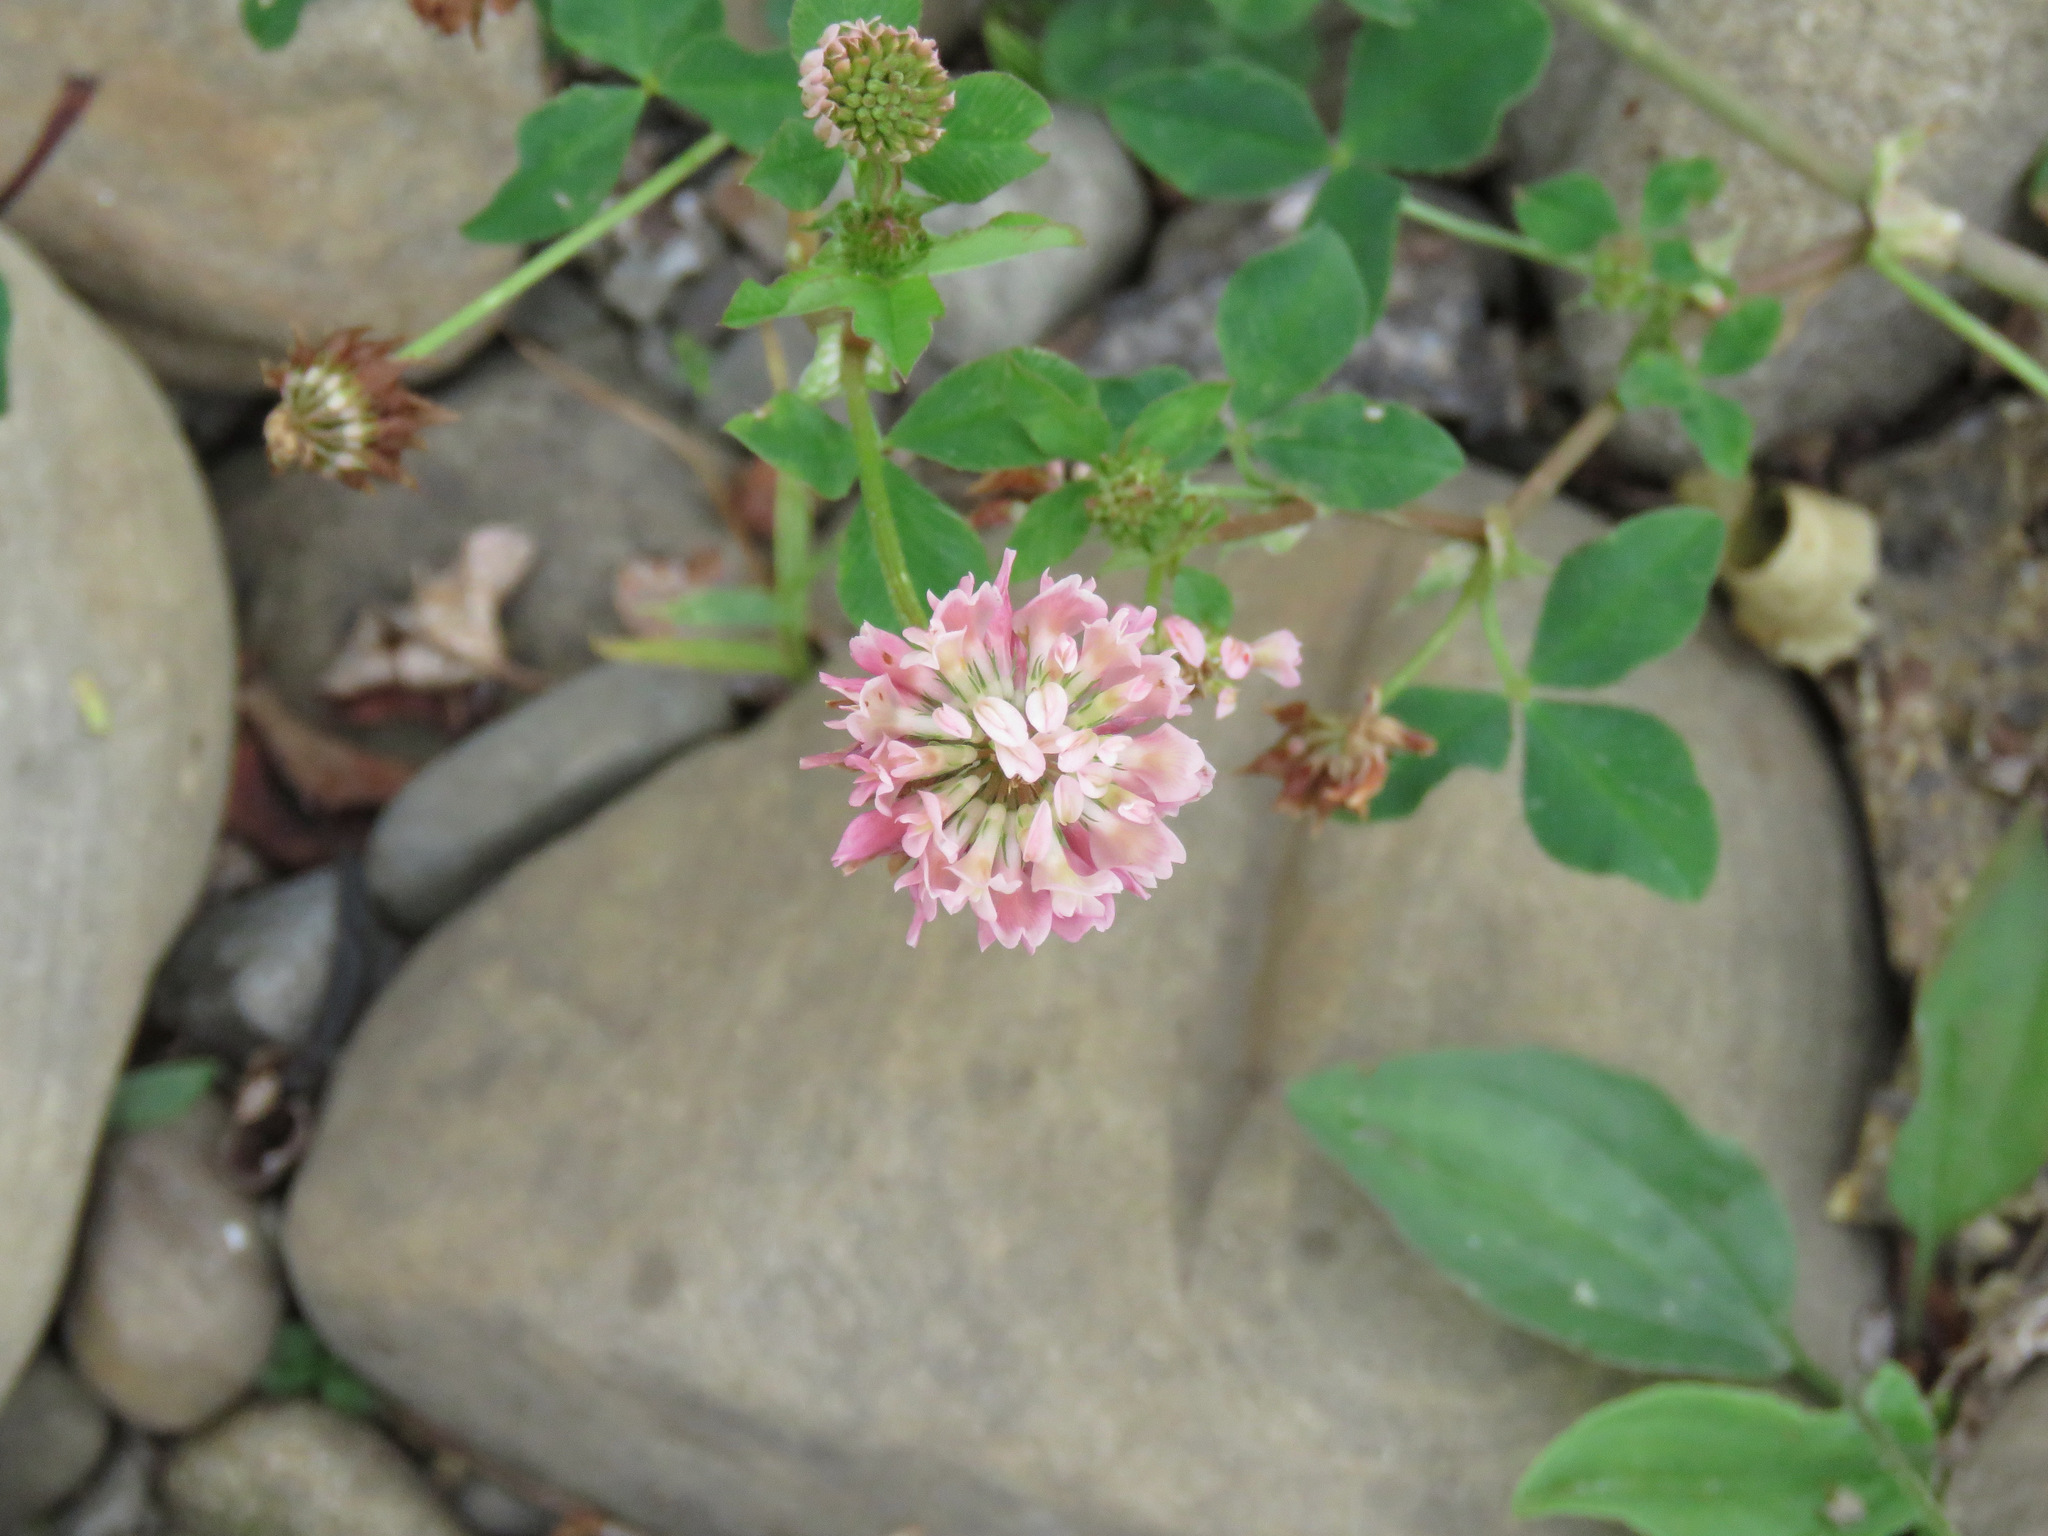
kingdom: Plantae
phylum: Tracheophyta
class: Magnoliopsida
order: Fabales
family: Fabaceae
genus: Trifolium
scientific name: Trifolium hybridum
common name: Alsike clover
